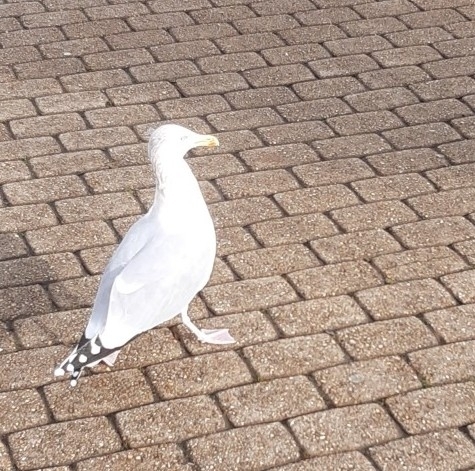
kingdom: Animalia
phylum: Chordata
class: Aves
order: Charadriiformes
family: Laridae
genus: Larus
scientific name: Larus argentatus
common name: Herring gull
